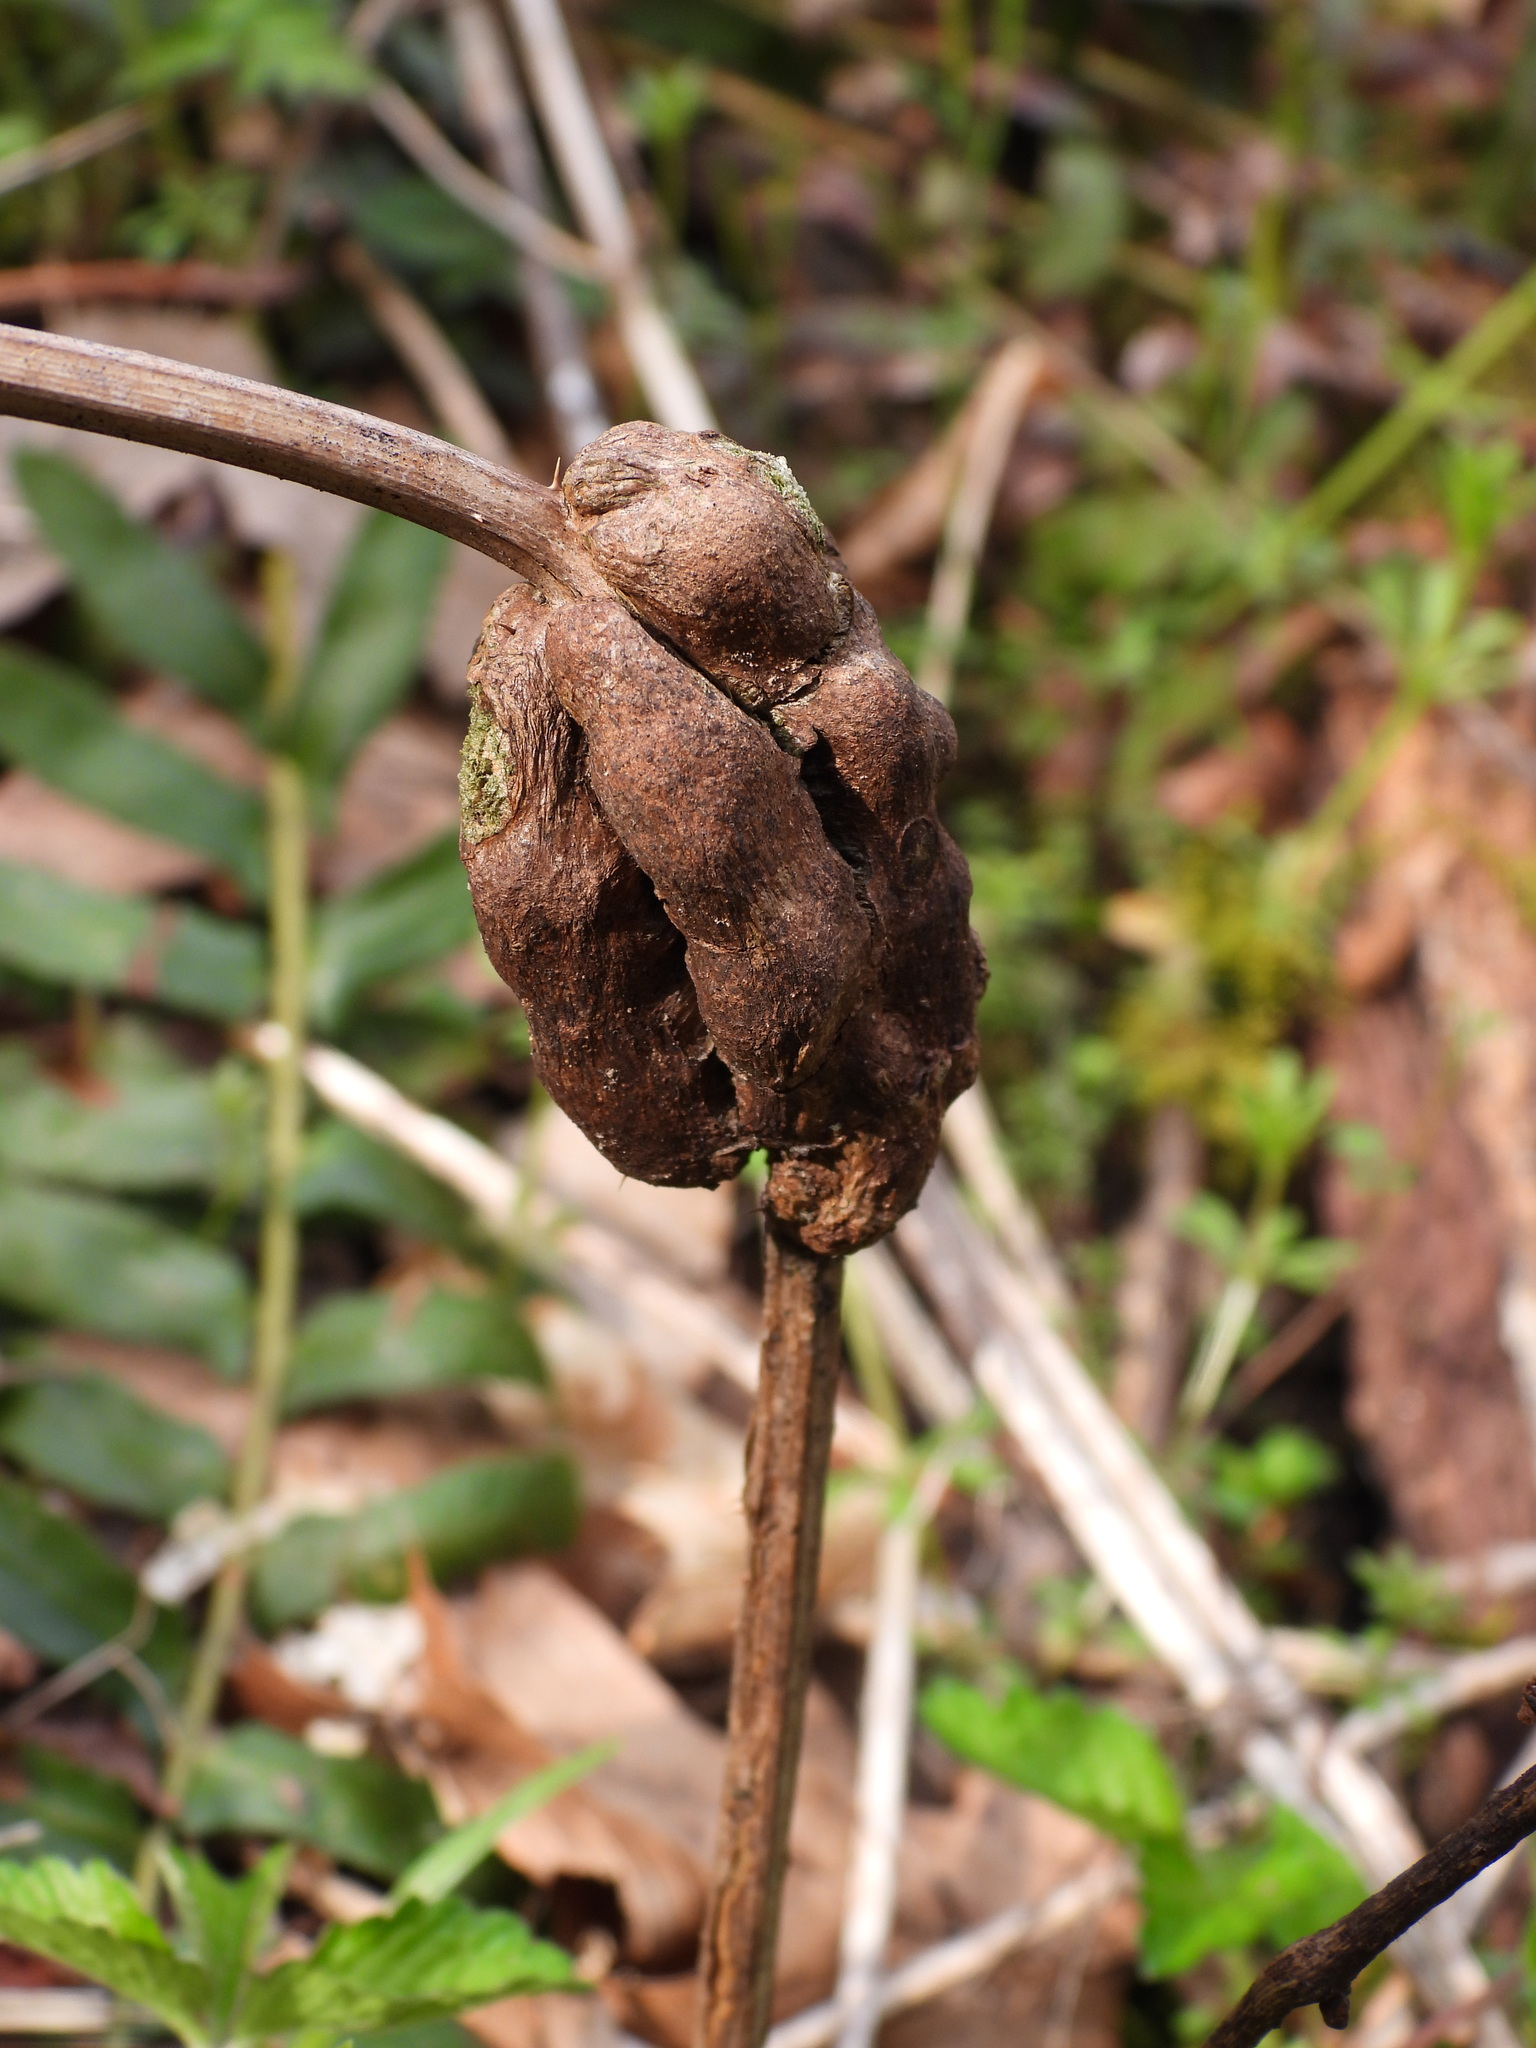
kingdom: Animalia
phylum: Arthropoda
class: Insecta
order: Hymenoptera
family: Cynipidae
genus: Diastrophus
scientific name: Diastrophus
